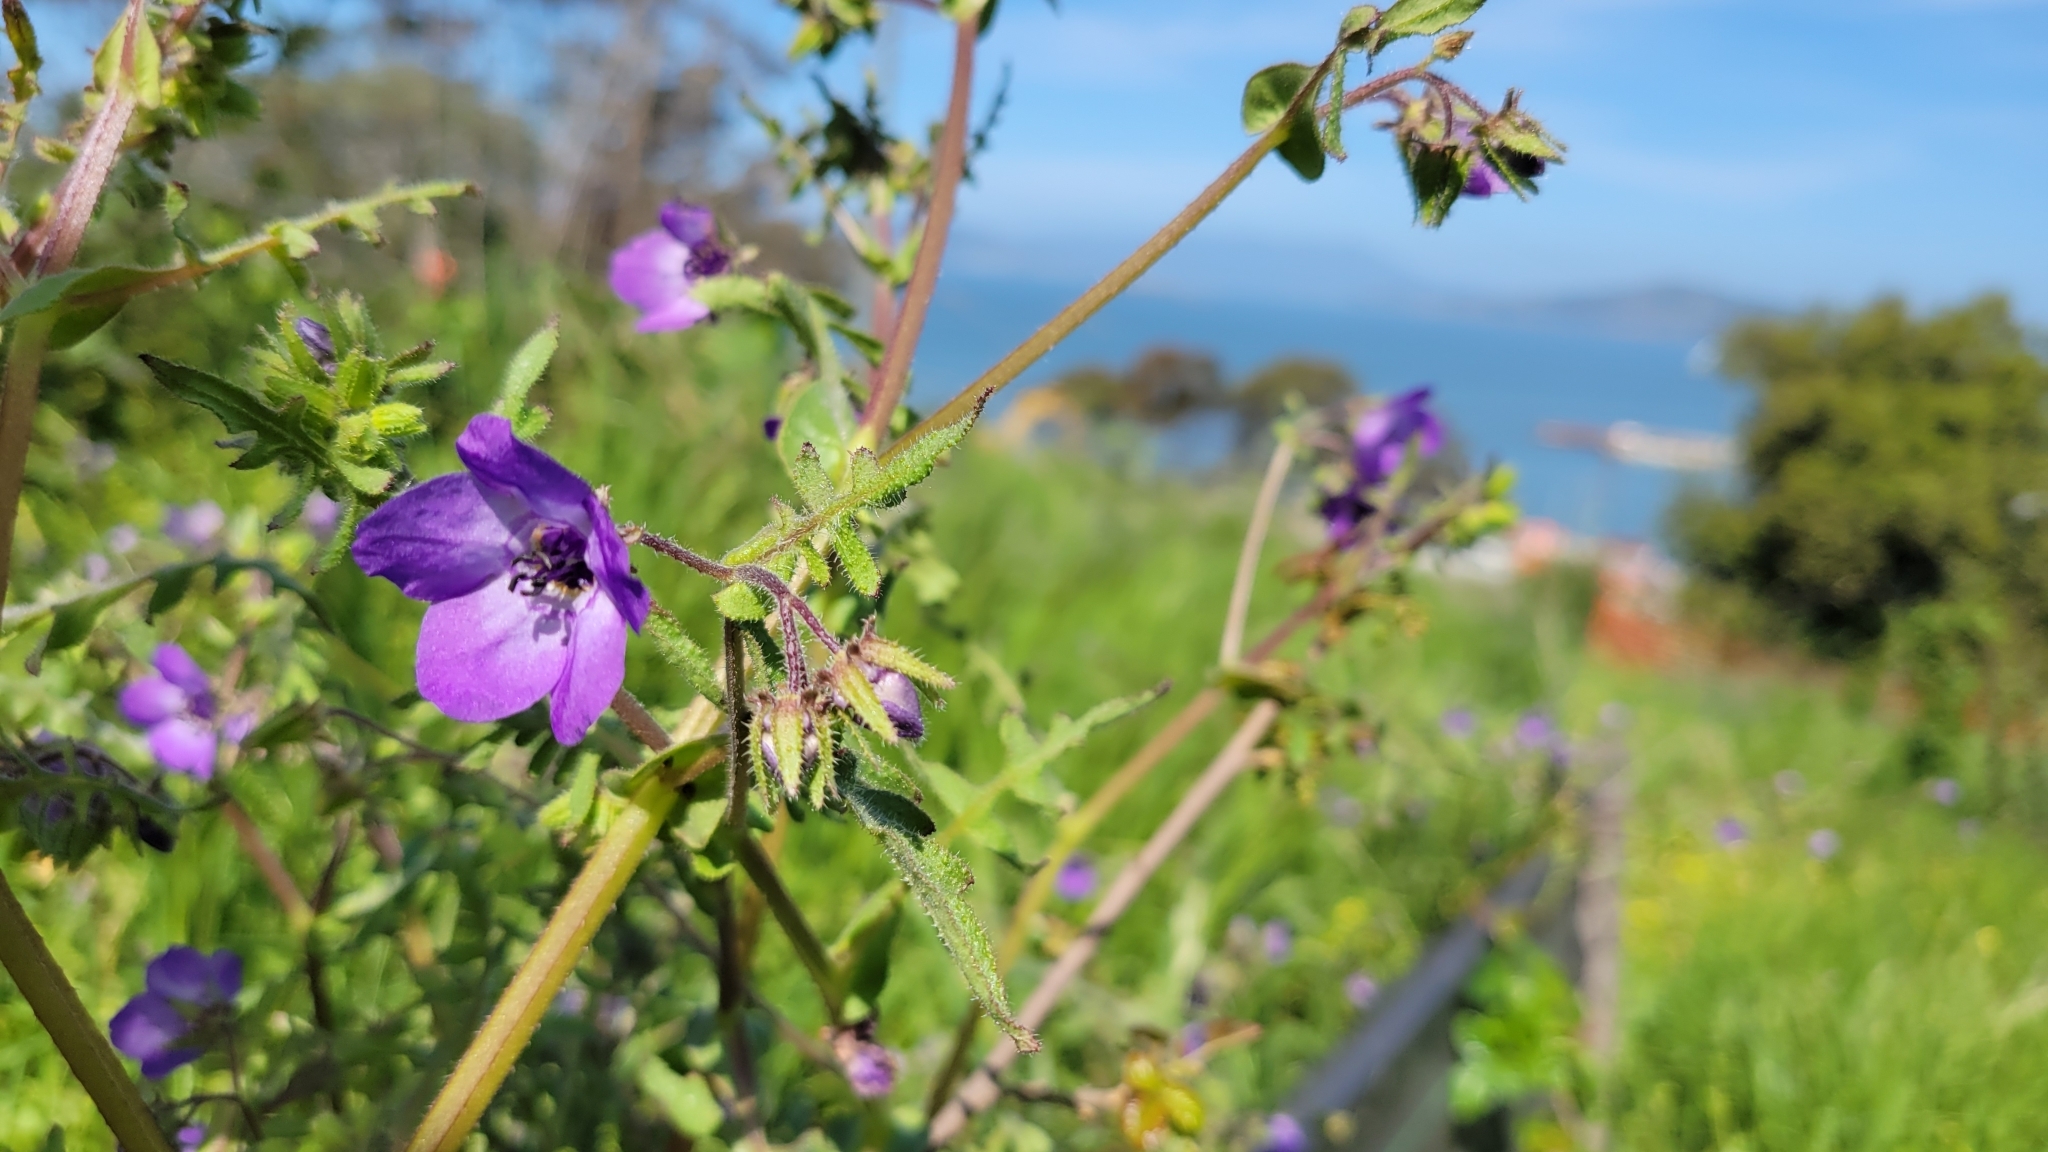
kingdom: Plantae
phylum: Tracheophyta
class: Magnoliopsida
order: Boraginales
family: Hydrophyllaceae
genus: Pholistoma
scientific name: Pholistoma auritum
